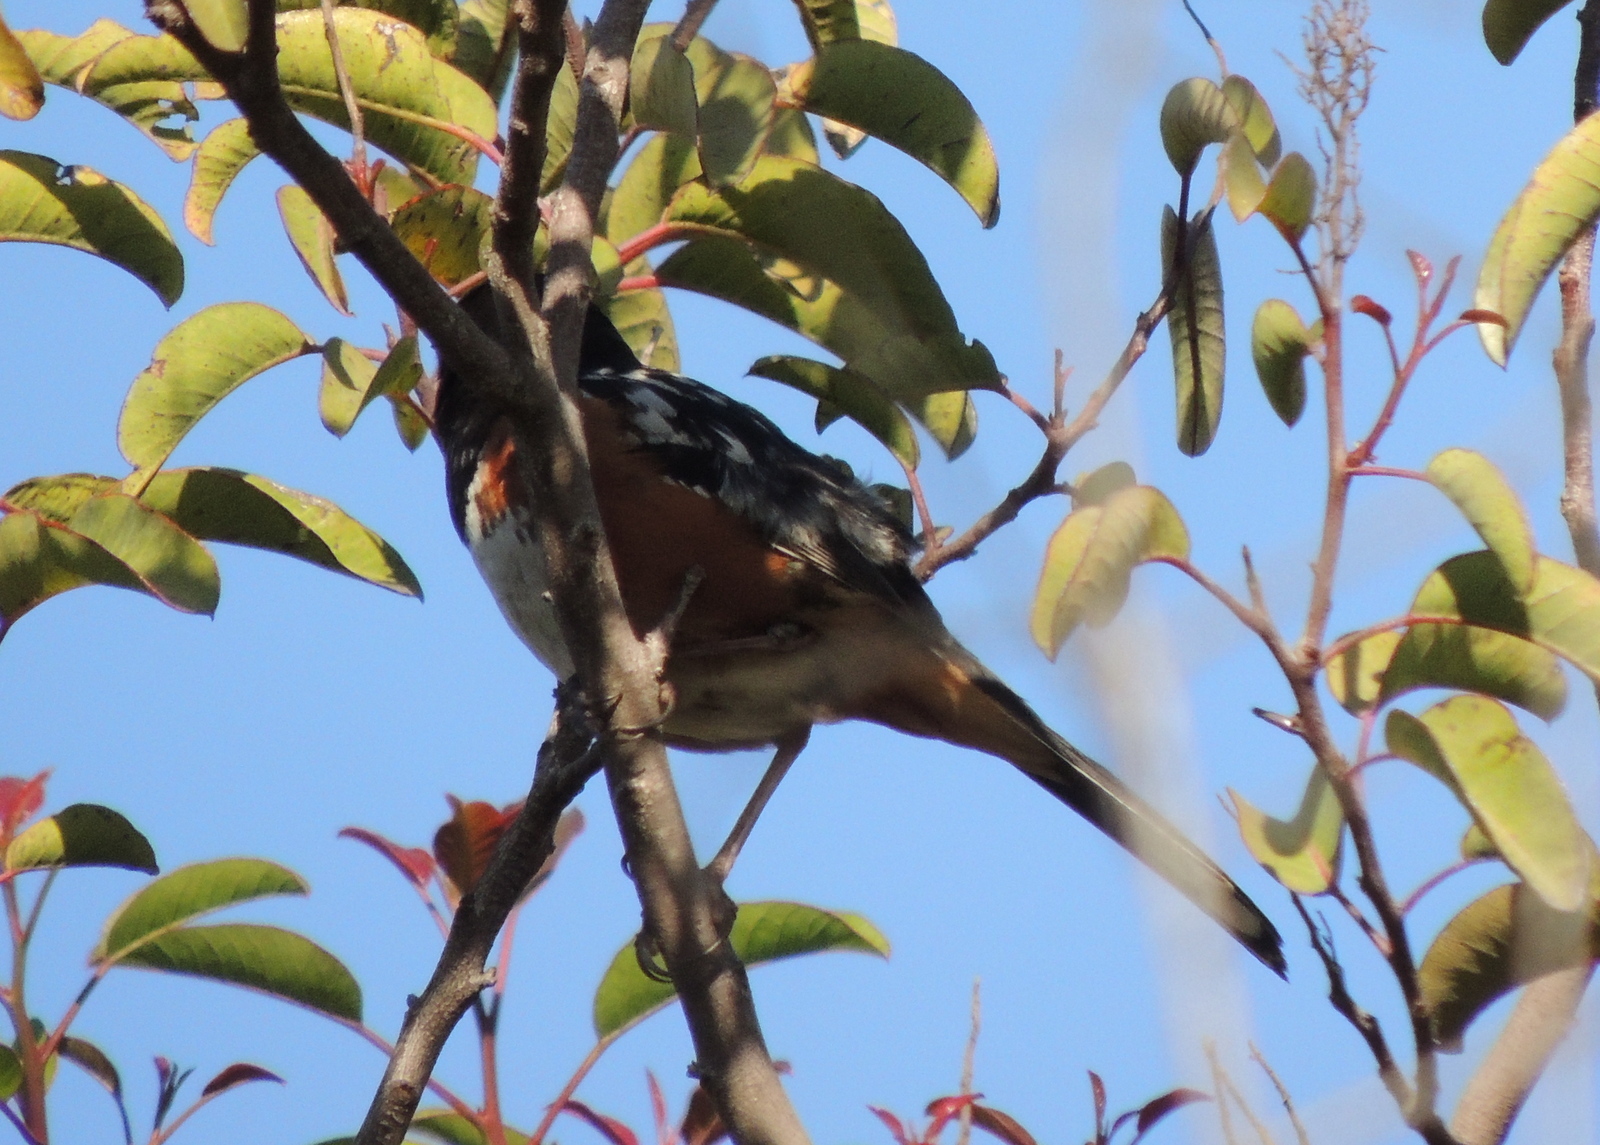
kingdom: Animalia
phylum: Chordata
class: Aves
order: Passeriformes
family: Passerellidae
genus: Pipilo
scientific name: Pipilo maculatus
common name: Spotted towhee
